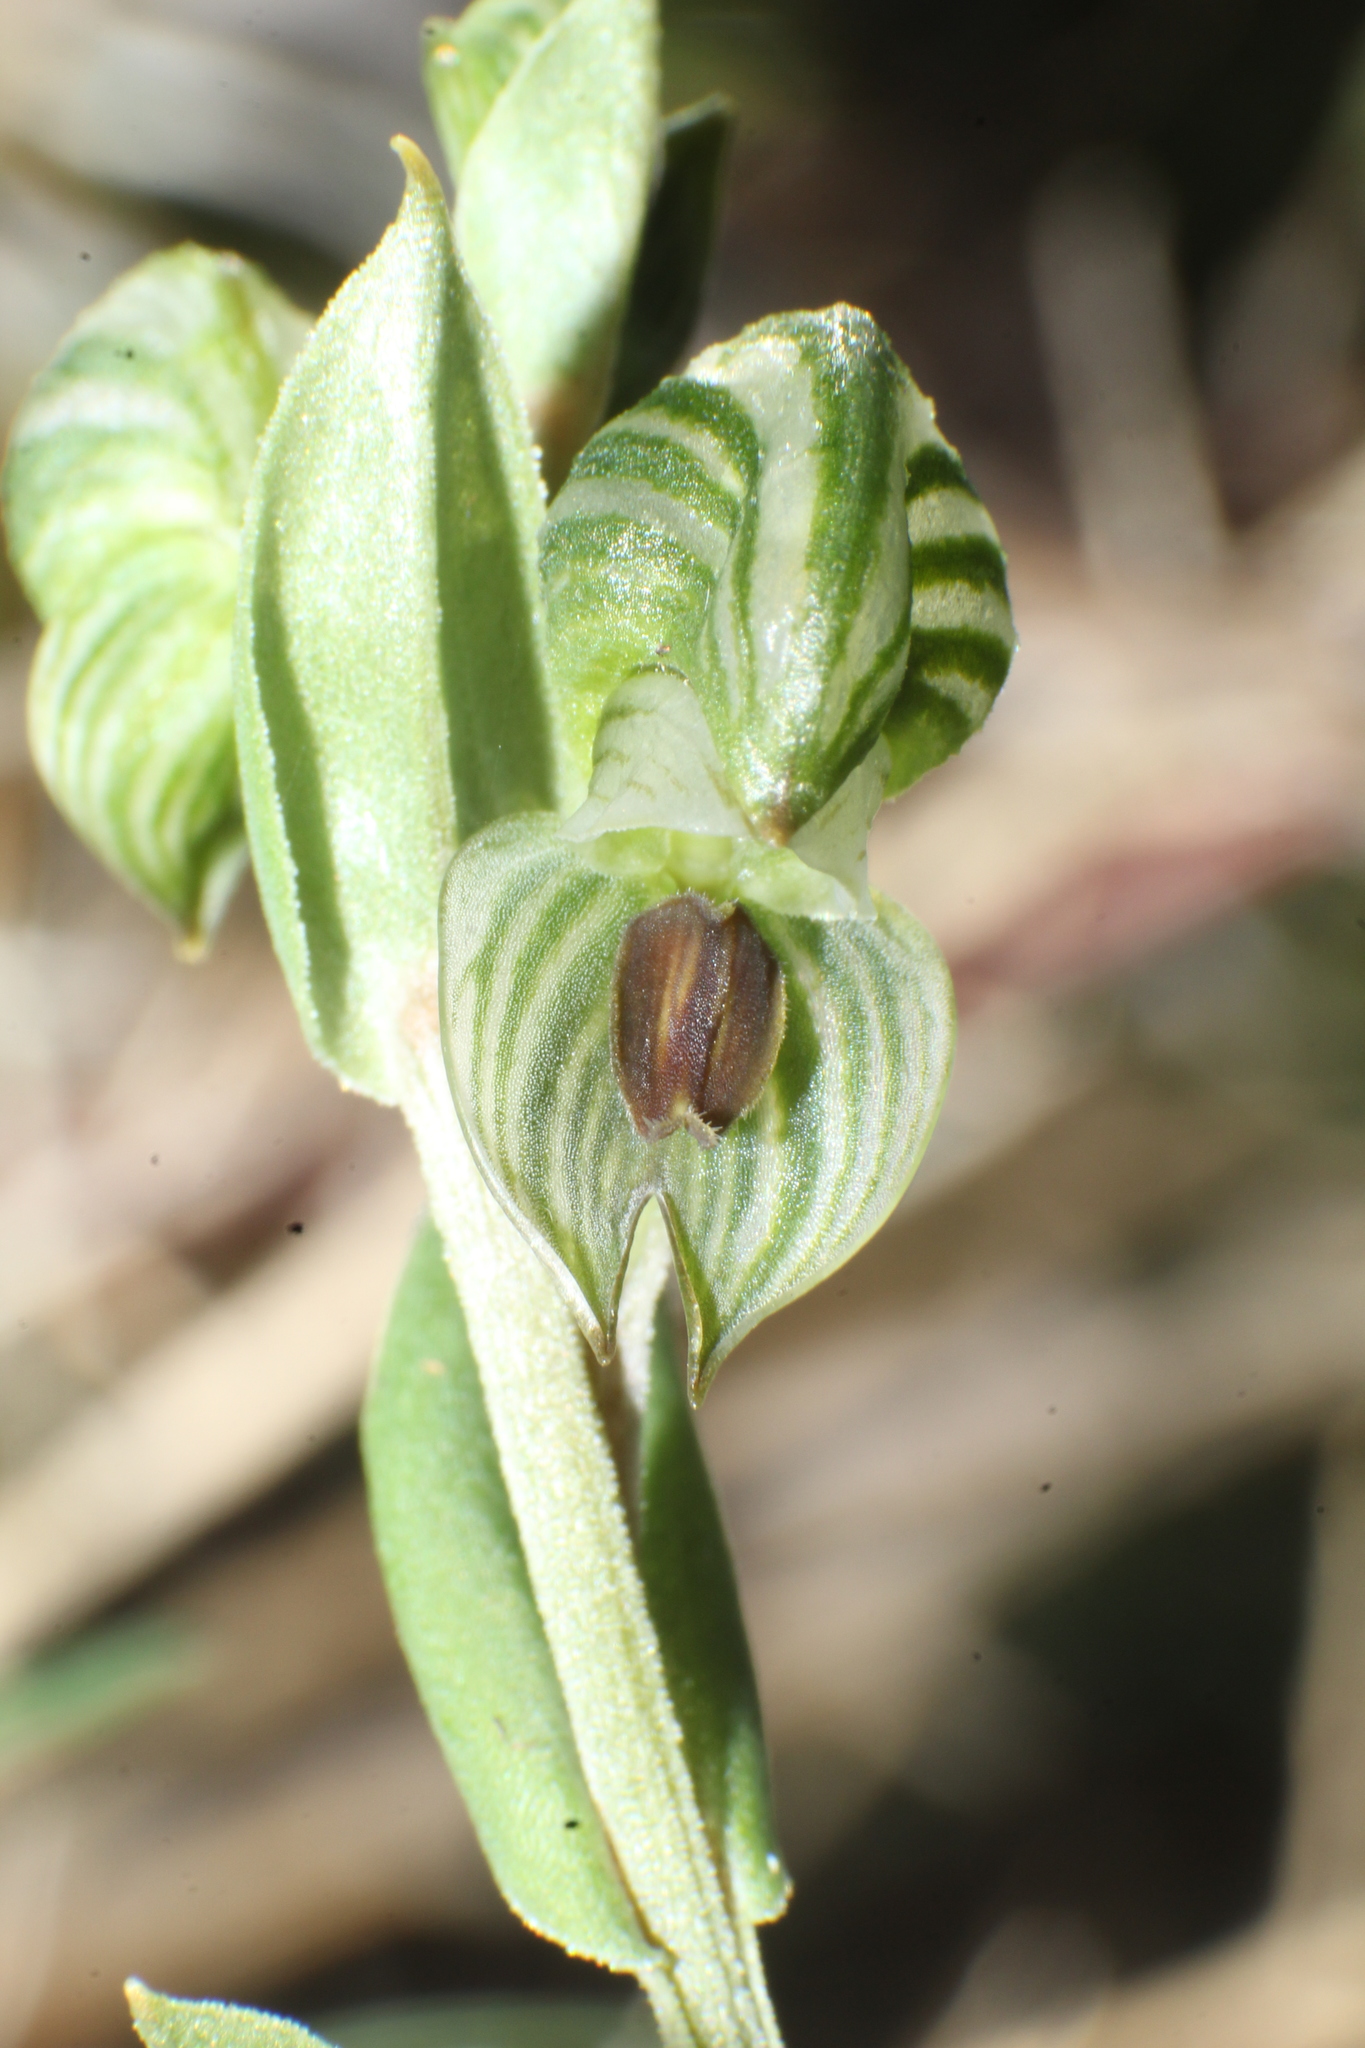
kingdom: Plantae
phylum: Tracheophyta
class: Liliopsida
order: Asparagales
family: Orchidaceae
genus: Pterostylis
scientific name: Pterostylis orbiculata
